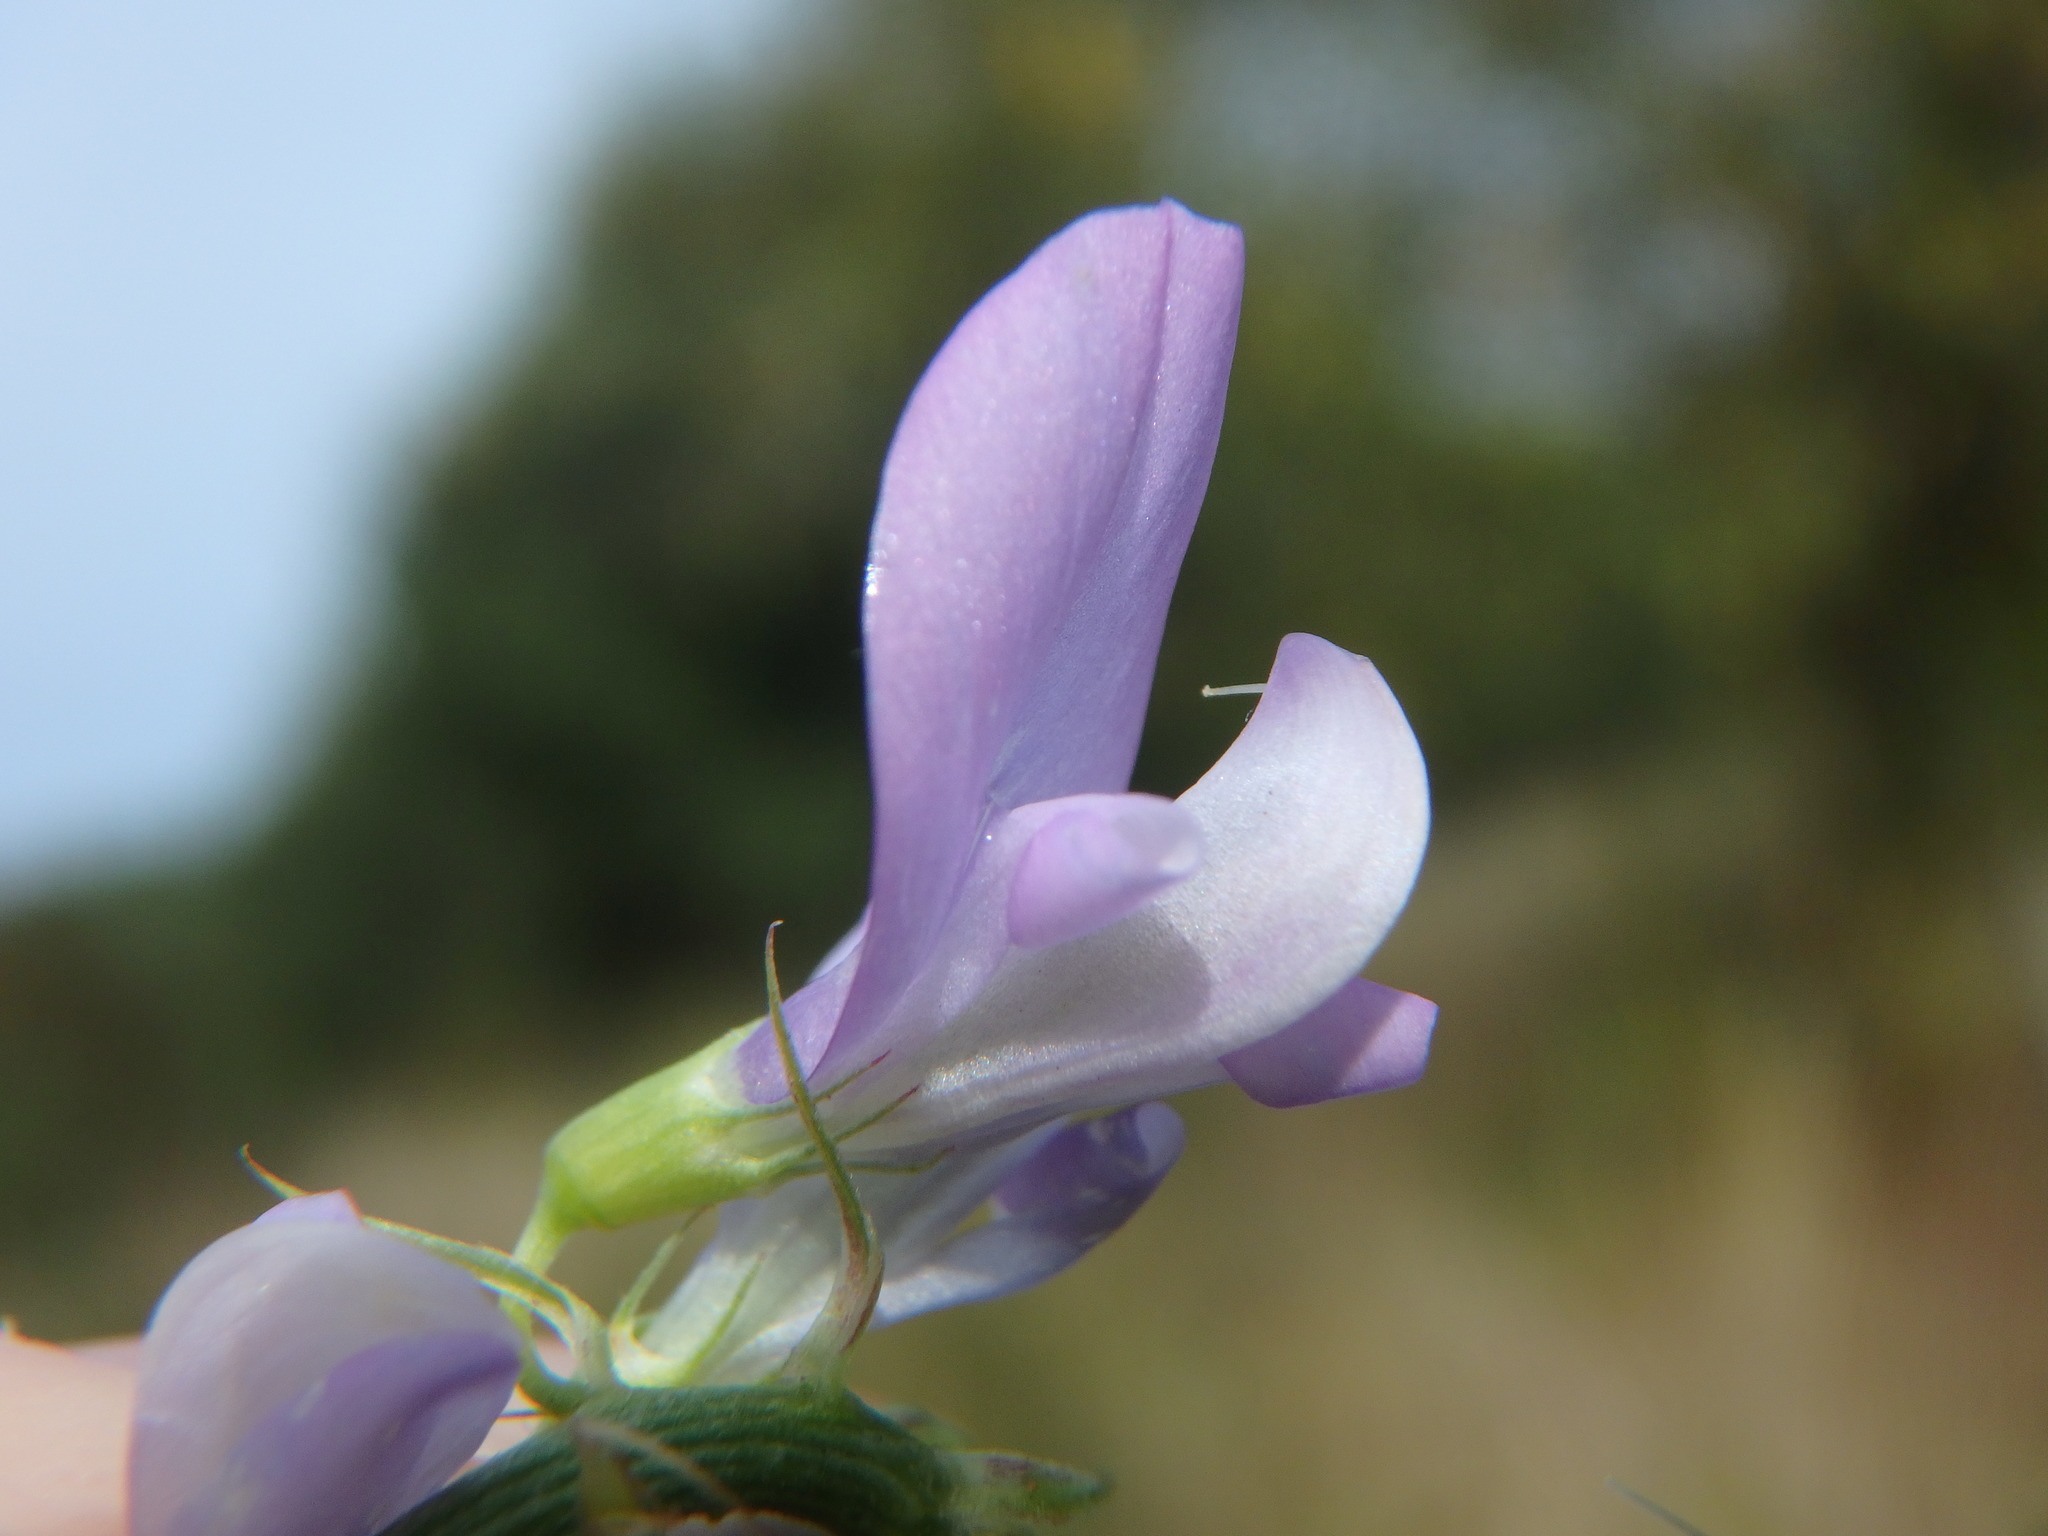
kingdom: Plantae
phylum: Tracheophyta
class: Magnoliopsida
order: Fabales
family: Fabaceae
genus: Galega
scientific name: Galega officinalis
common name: Goat's-rue
